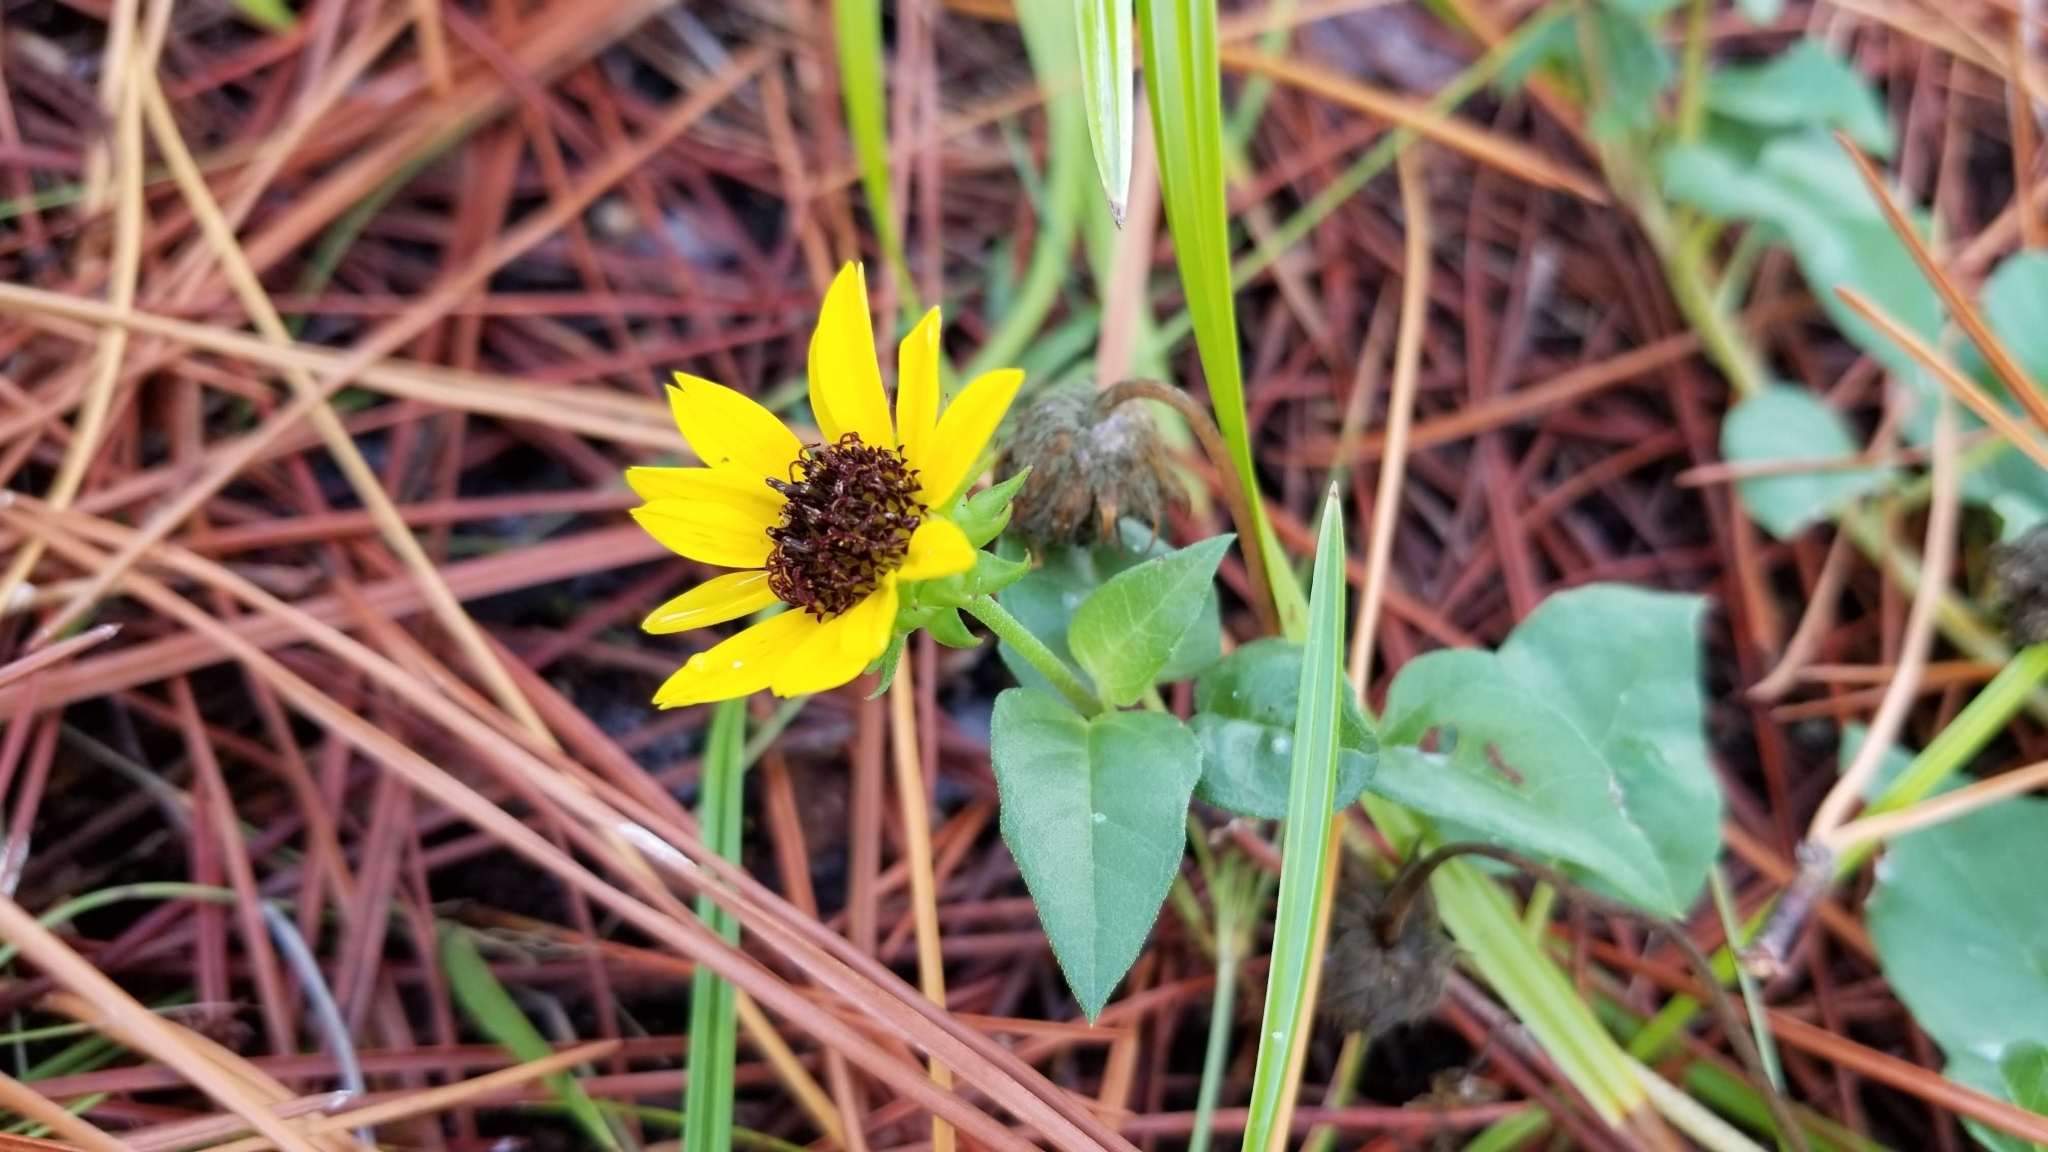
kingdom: Plantae
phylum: Tracheophyta
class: Magnoliopsida
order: Asterales
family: Asteraceae
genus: Helianthus
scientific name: Helianthus debilis
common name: Weak sunflower
